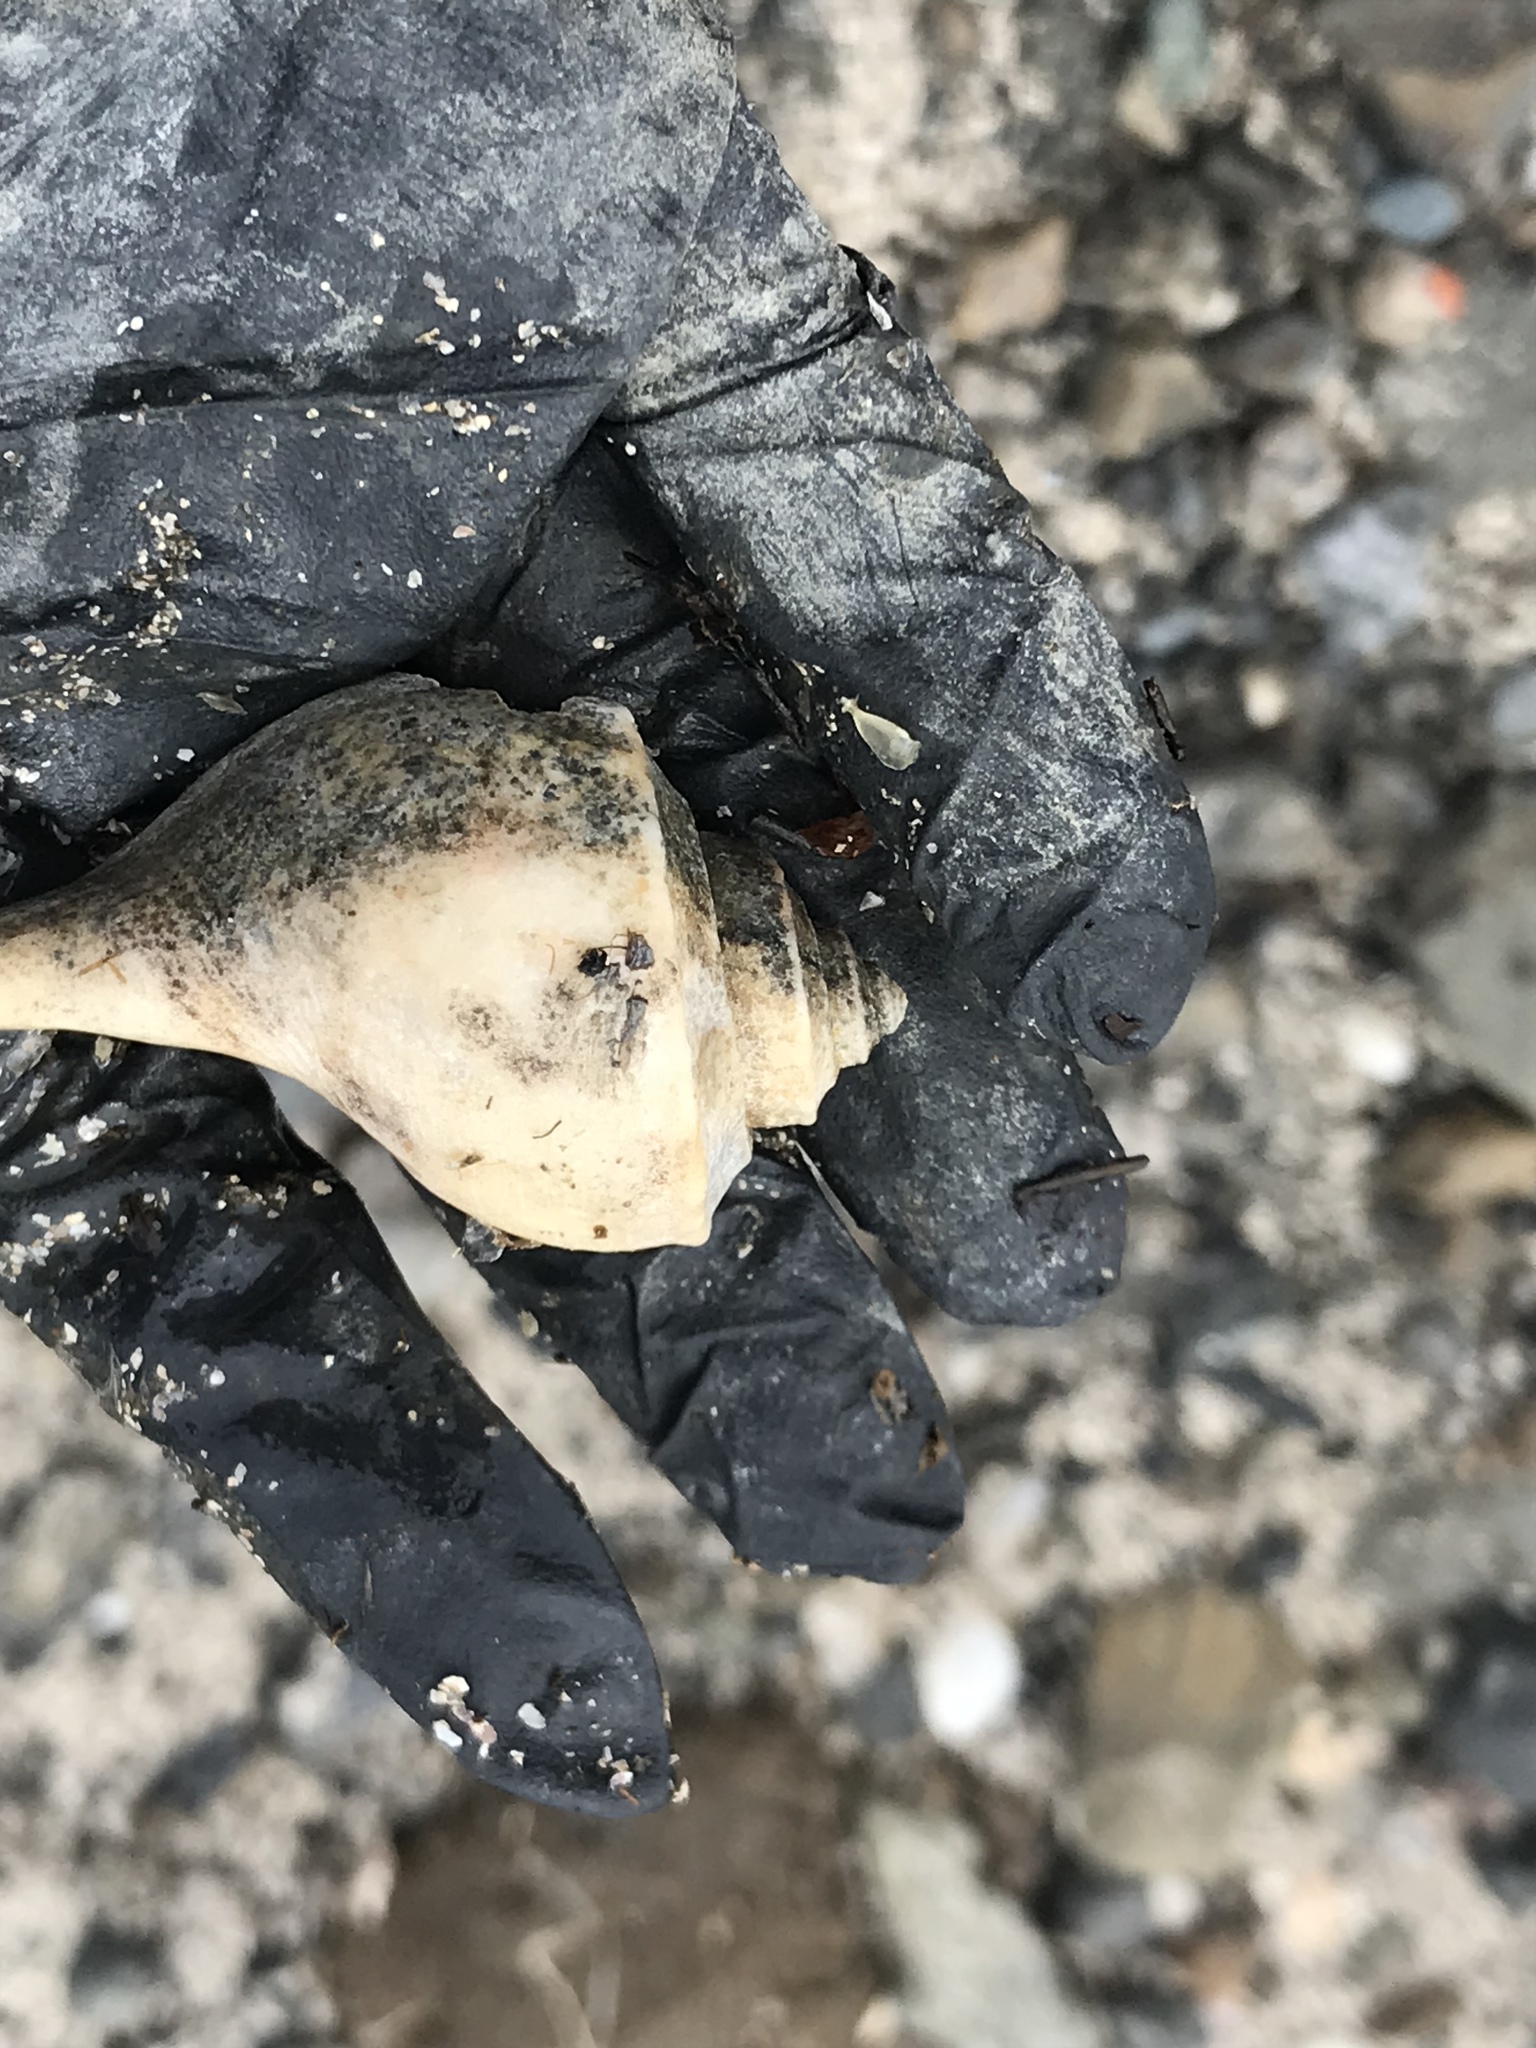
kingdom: Animalia
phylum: Mollusca
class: Gastropoda
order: Neogastropoda
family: Busyconidae
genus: Busycotypus
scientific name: Busycotypus canaliculatus
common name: Channeled whelk
